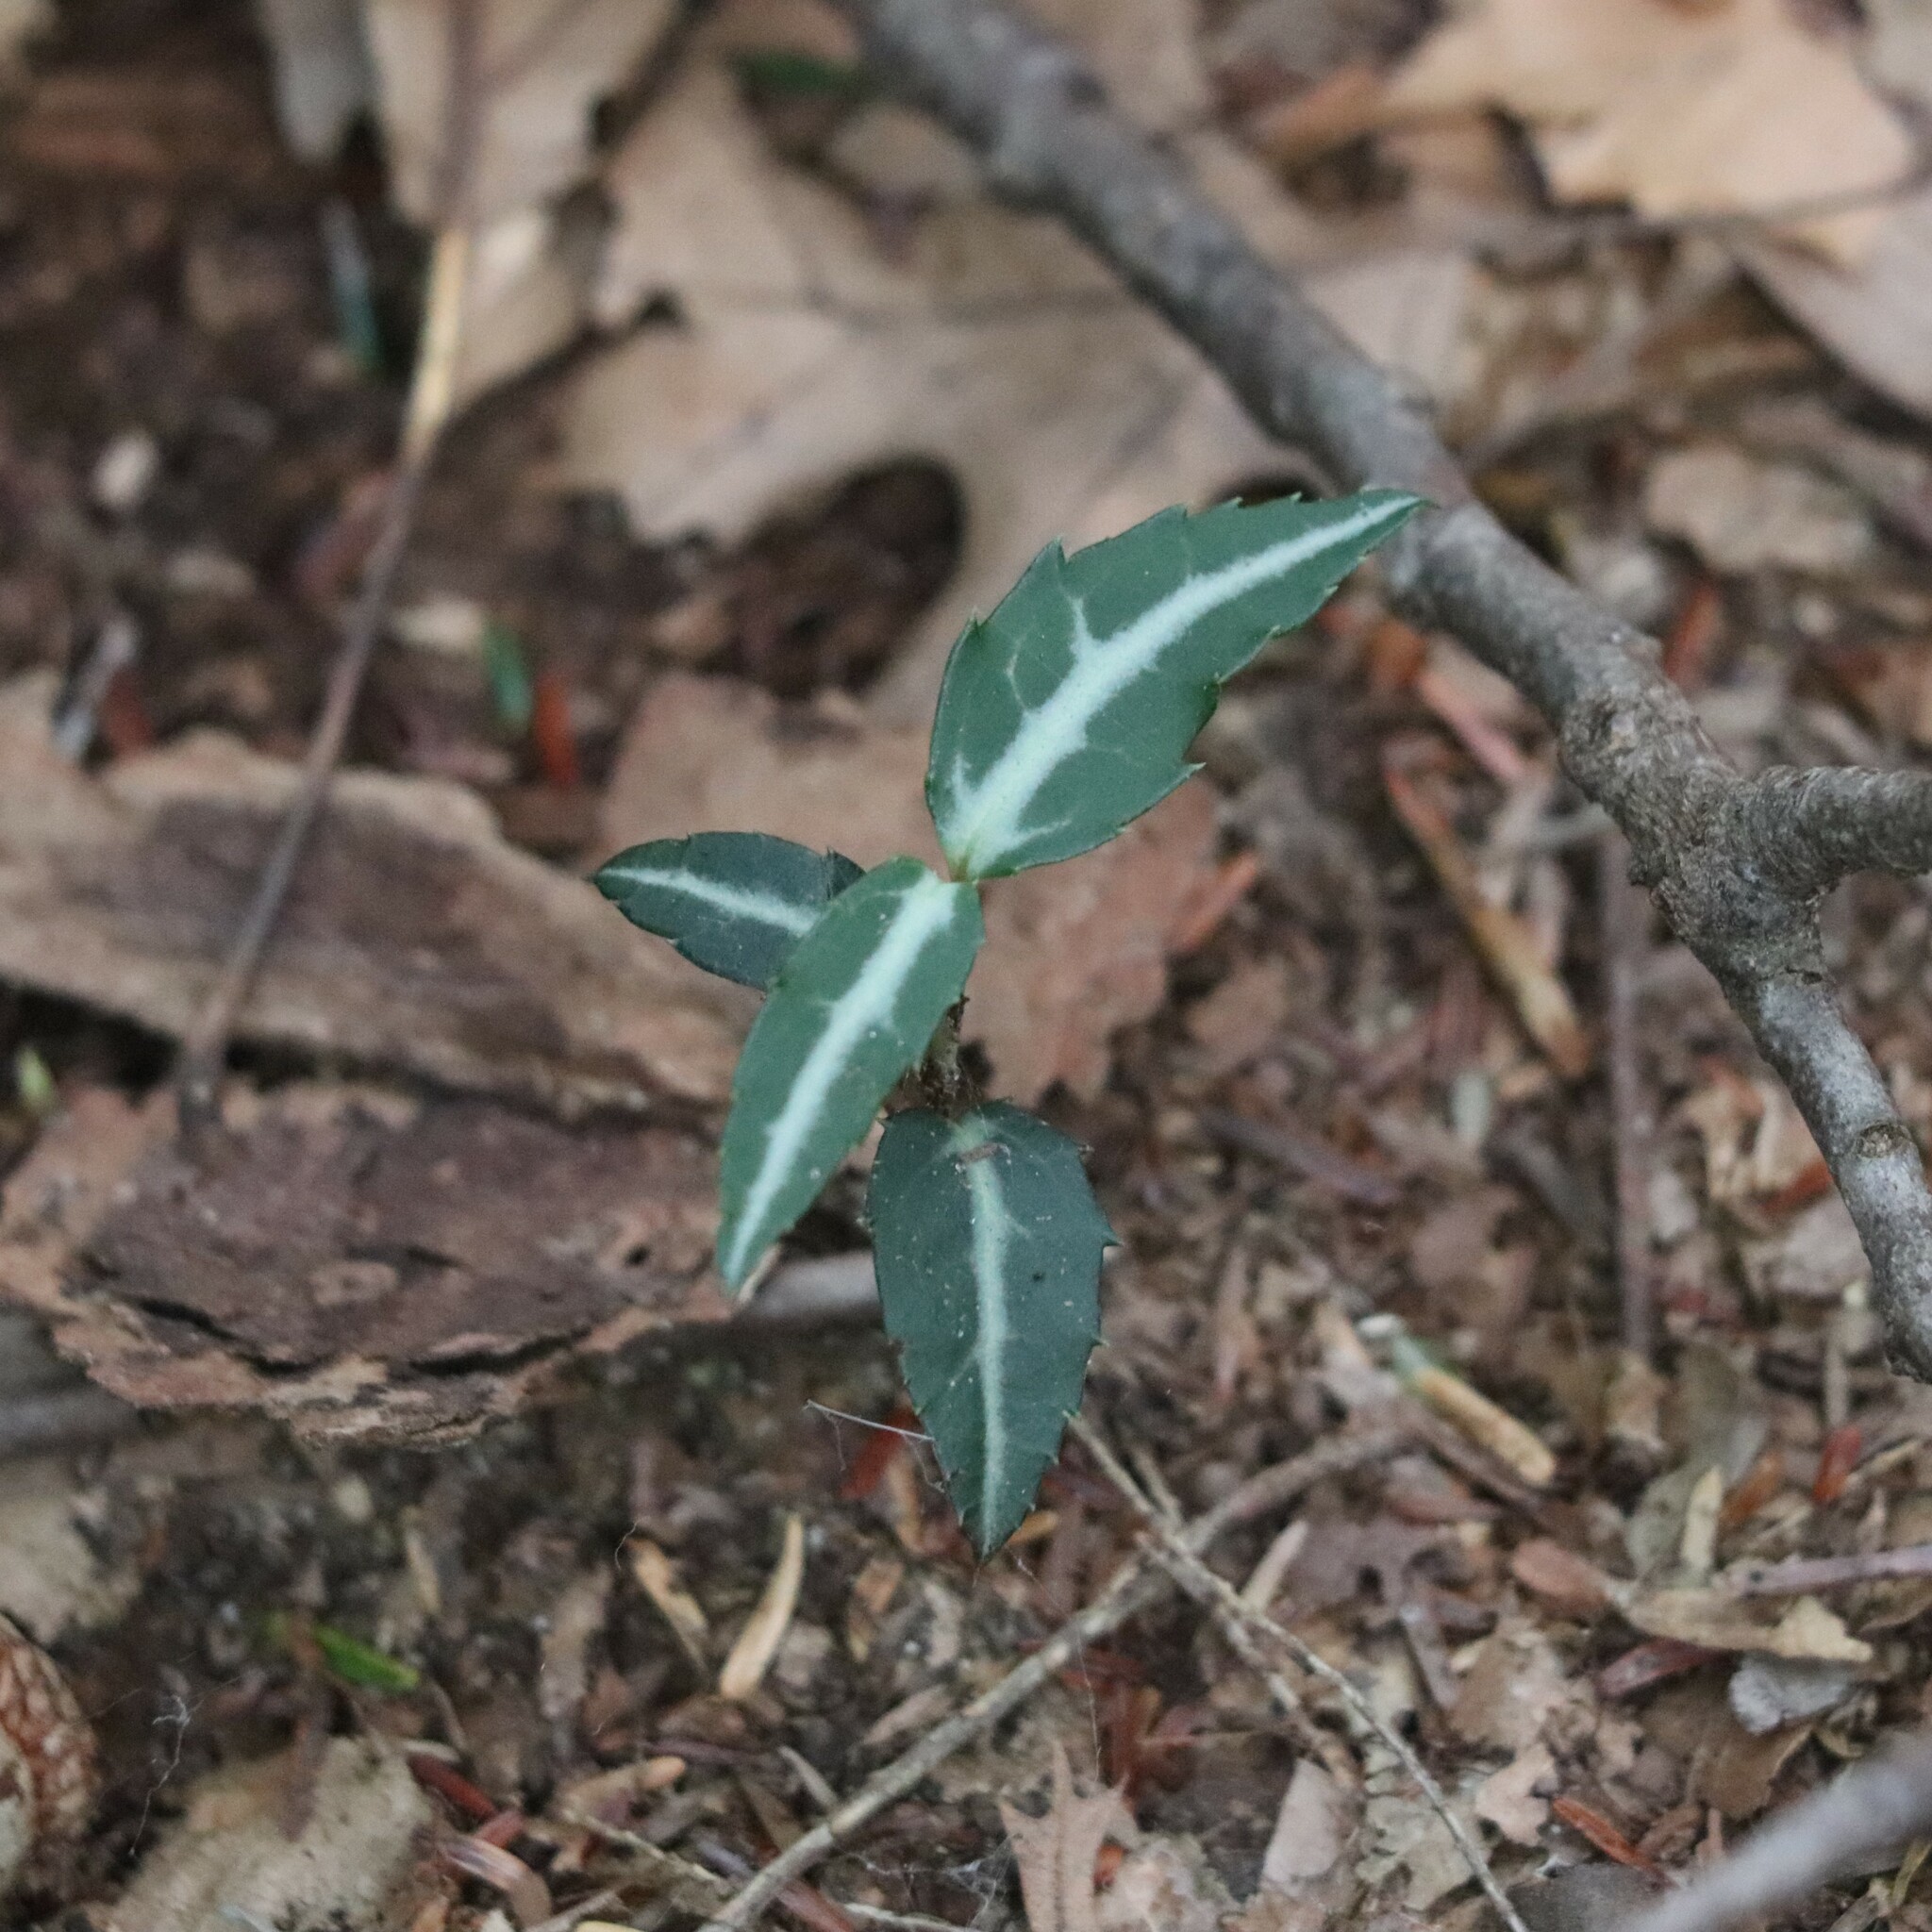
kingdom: Plantae
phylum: Tracheophyta
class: Magnoliopsida
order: Ericales
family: Ericaceae
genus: Chimaphila
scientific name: Chimaphila maculata
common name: Spotted pipsissewa
